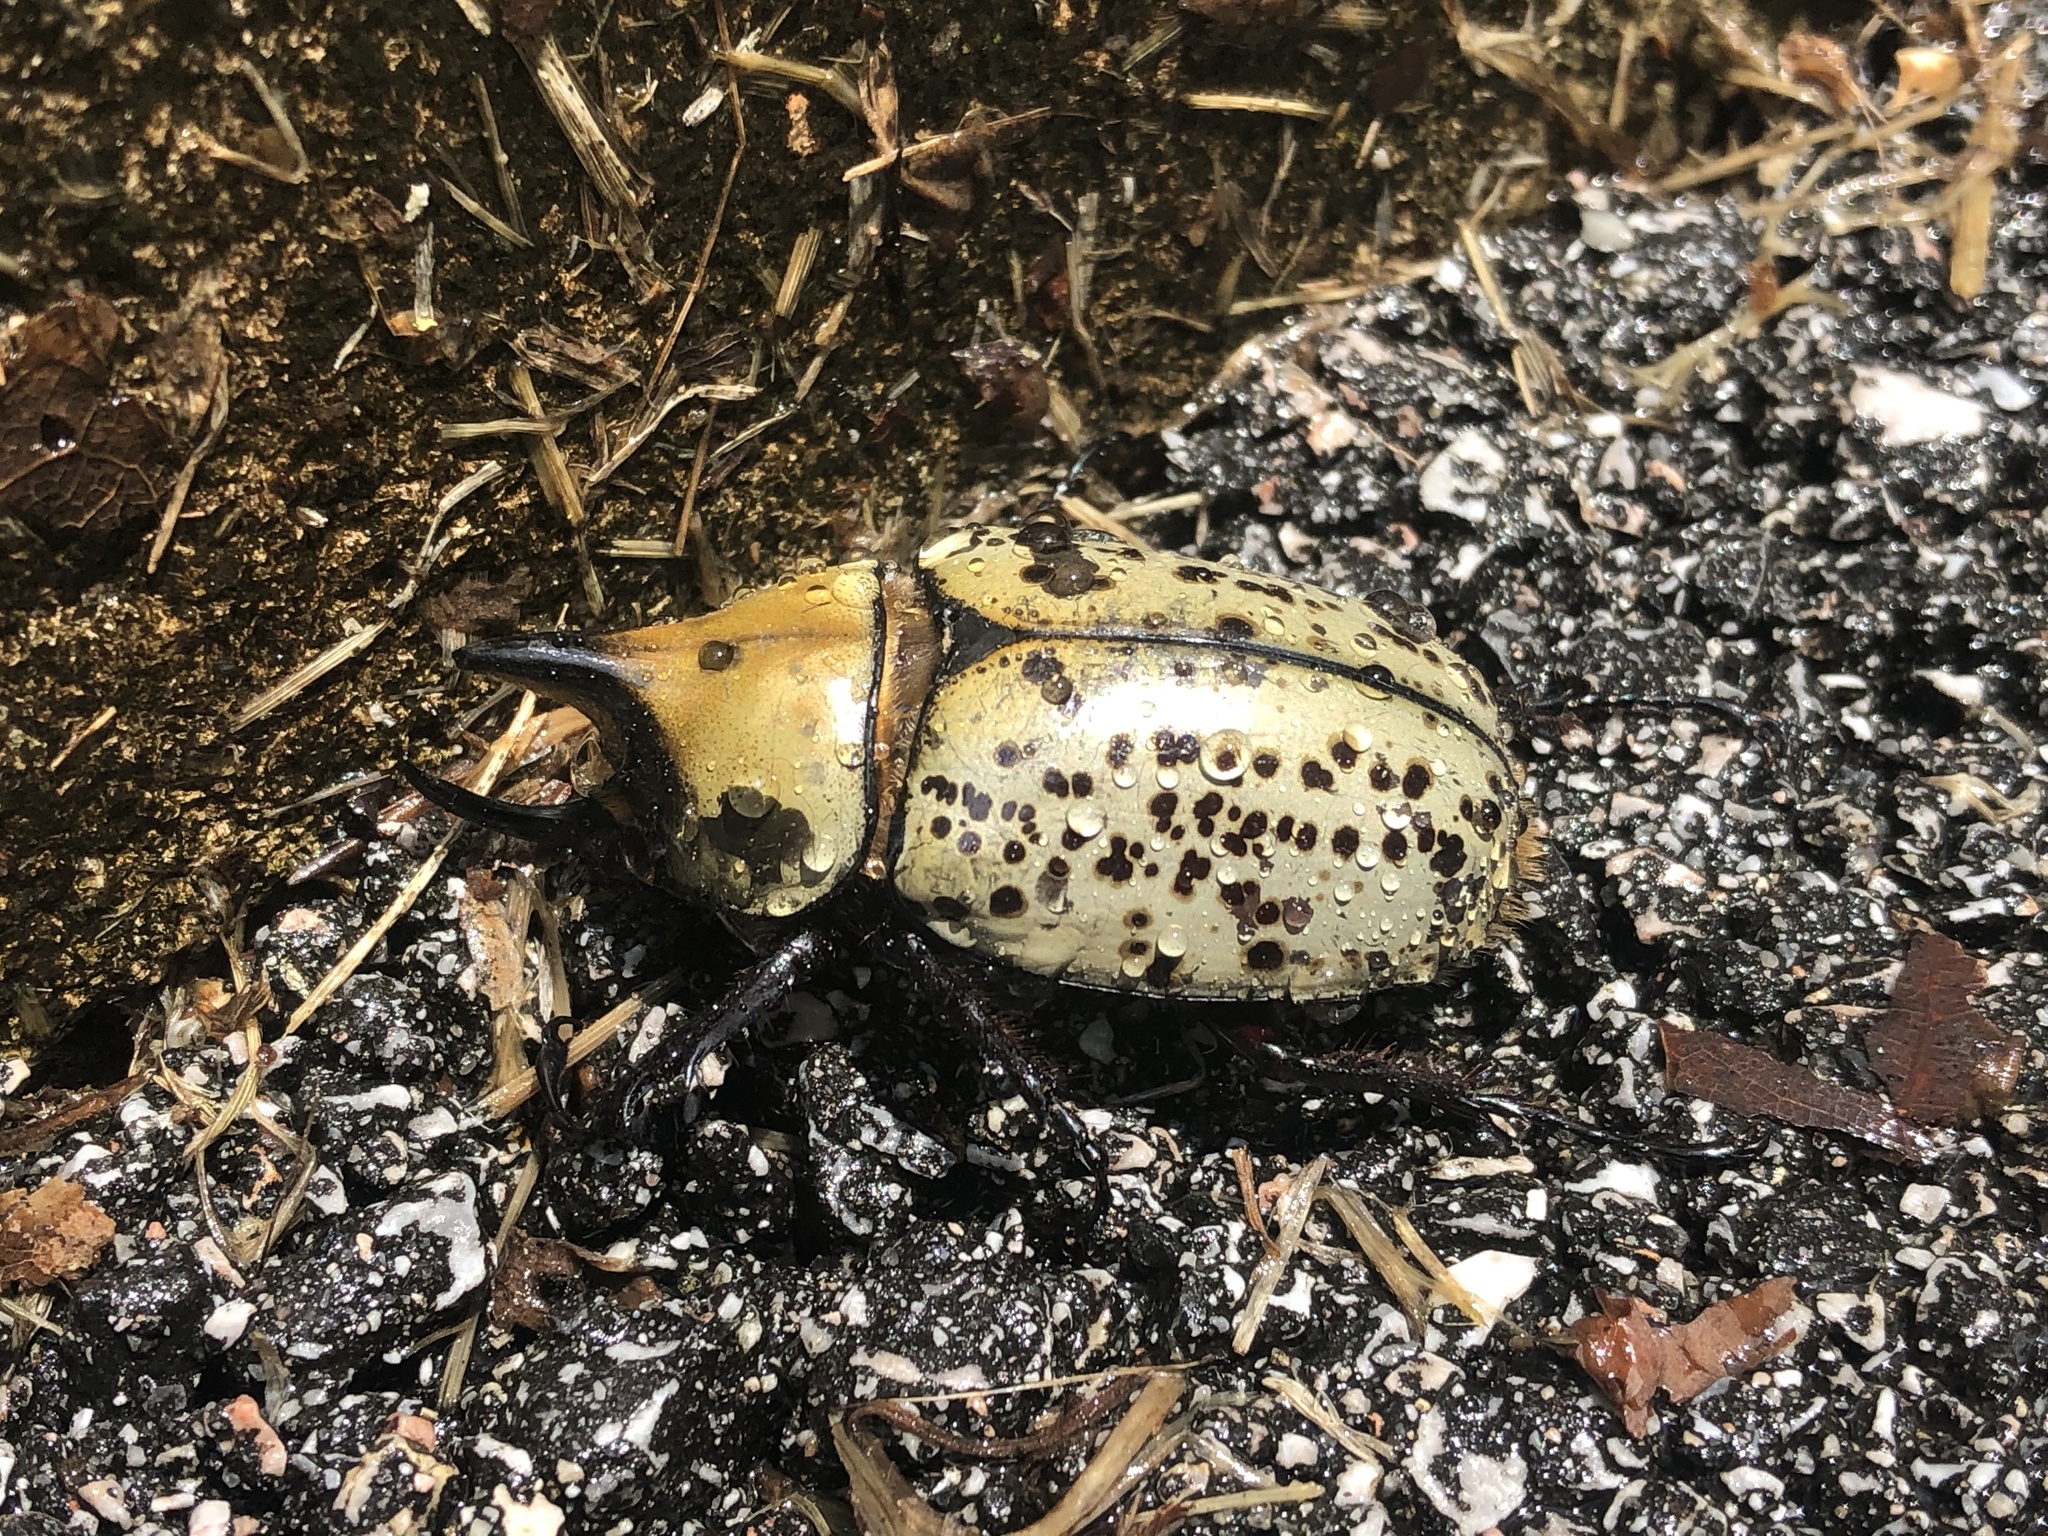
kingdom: Animalia
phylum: Arthropoda
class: Insecta
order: Coleoptera
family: Scarabaeidae
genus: Dynastes
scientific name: Dynastes tityus
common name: Eastern hercules beetle
